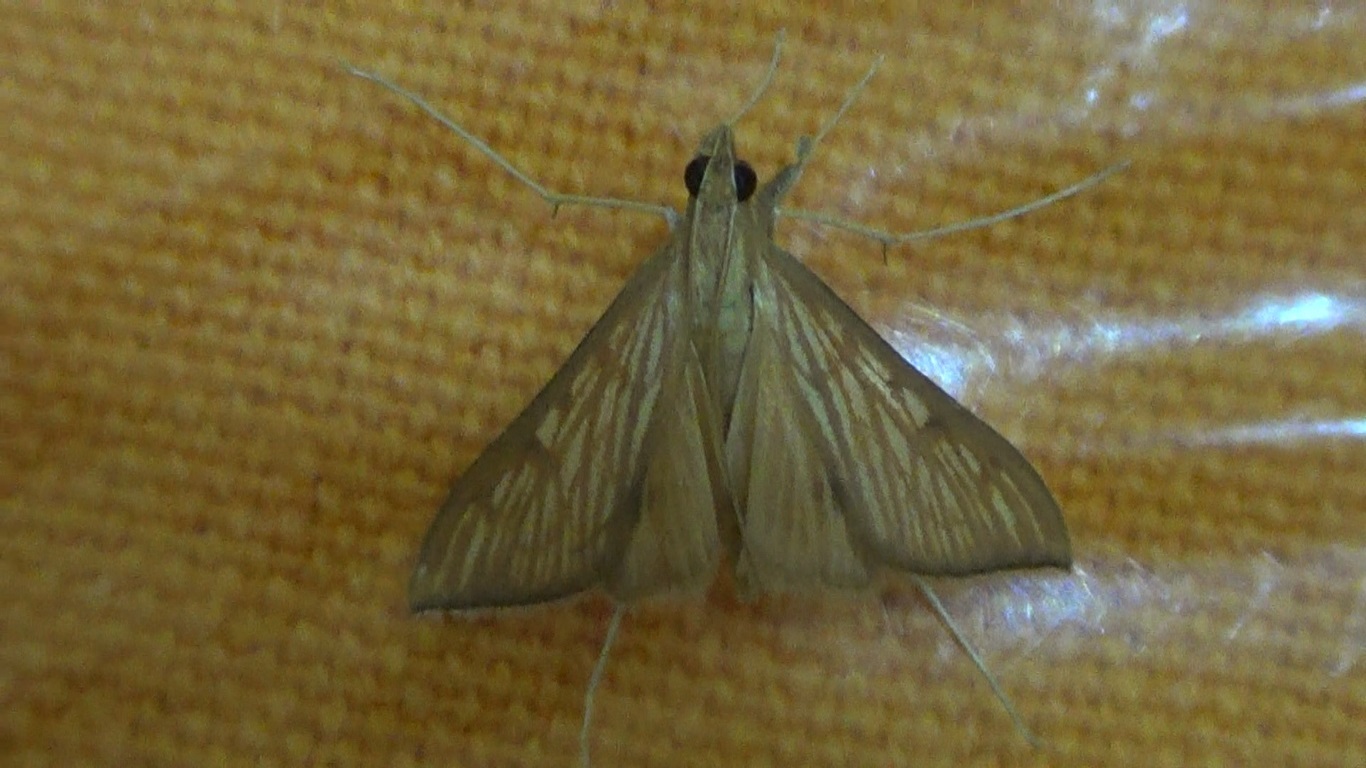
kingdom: Animalia
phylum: Arthropoda
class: Insecta
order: Lepidoptera
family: Crambidae
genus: Antigastra
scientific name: Antigastra catalaunalis
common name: Spanish dot
